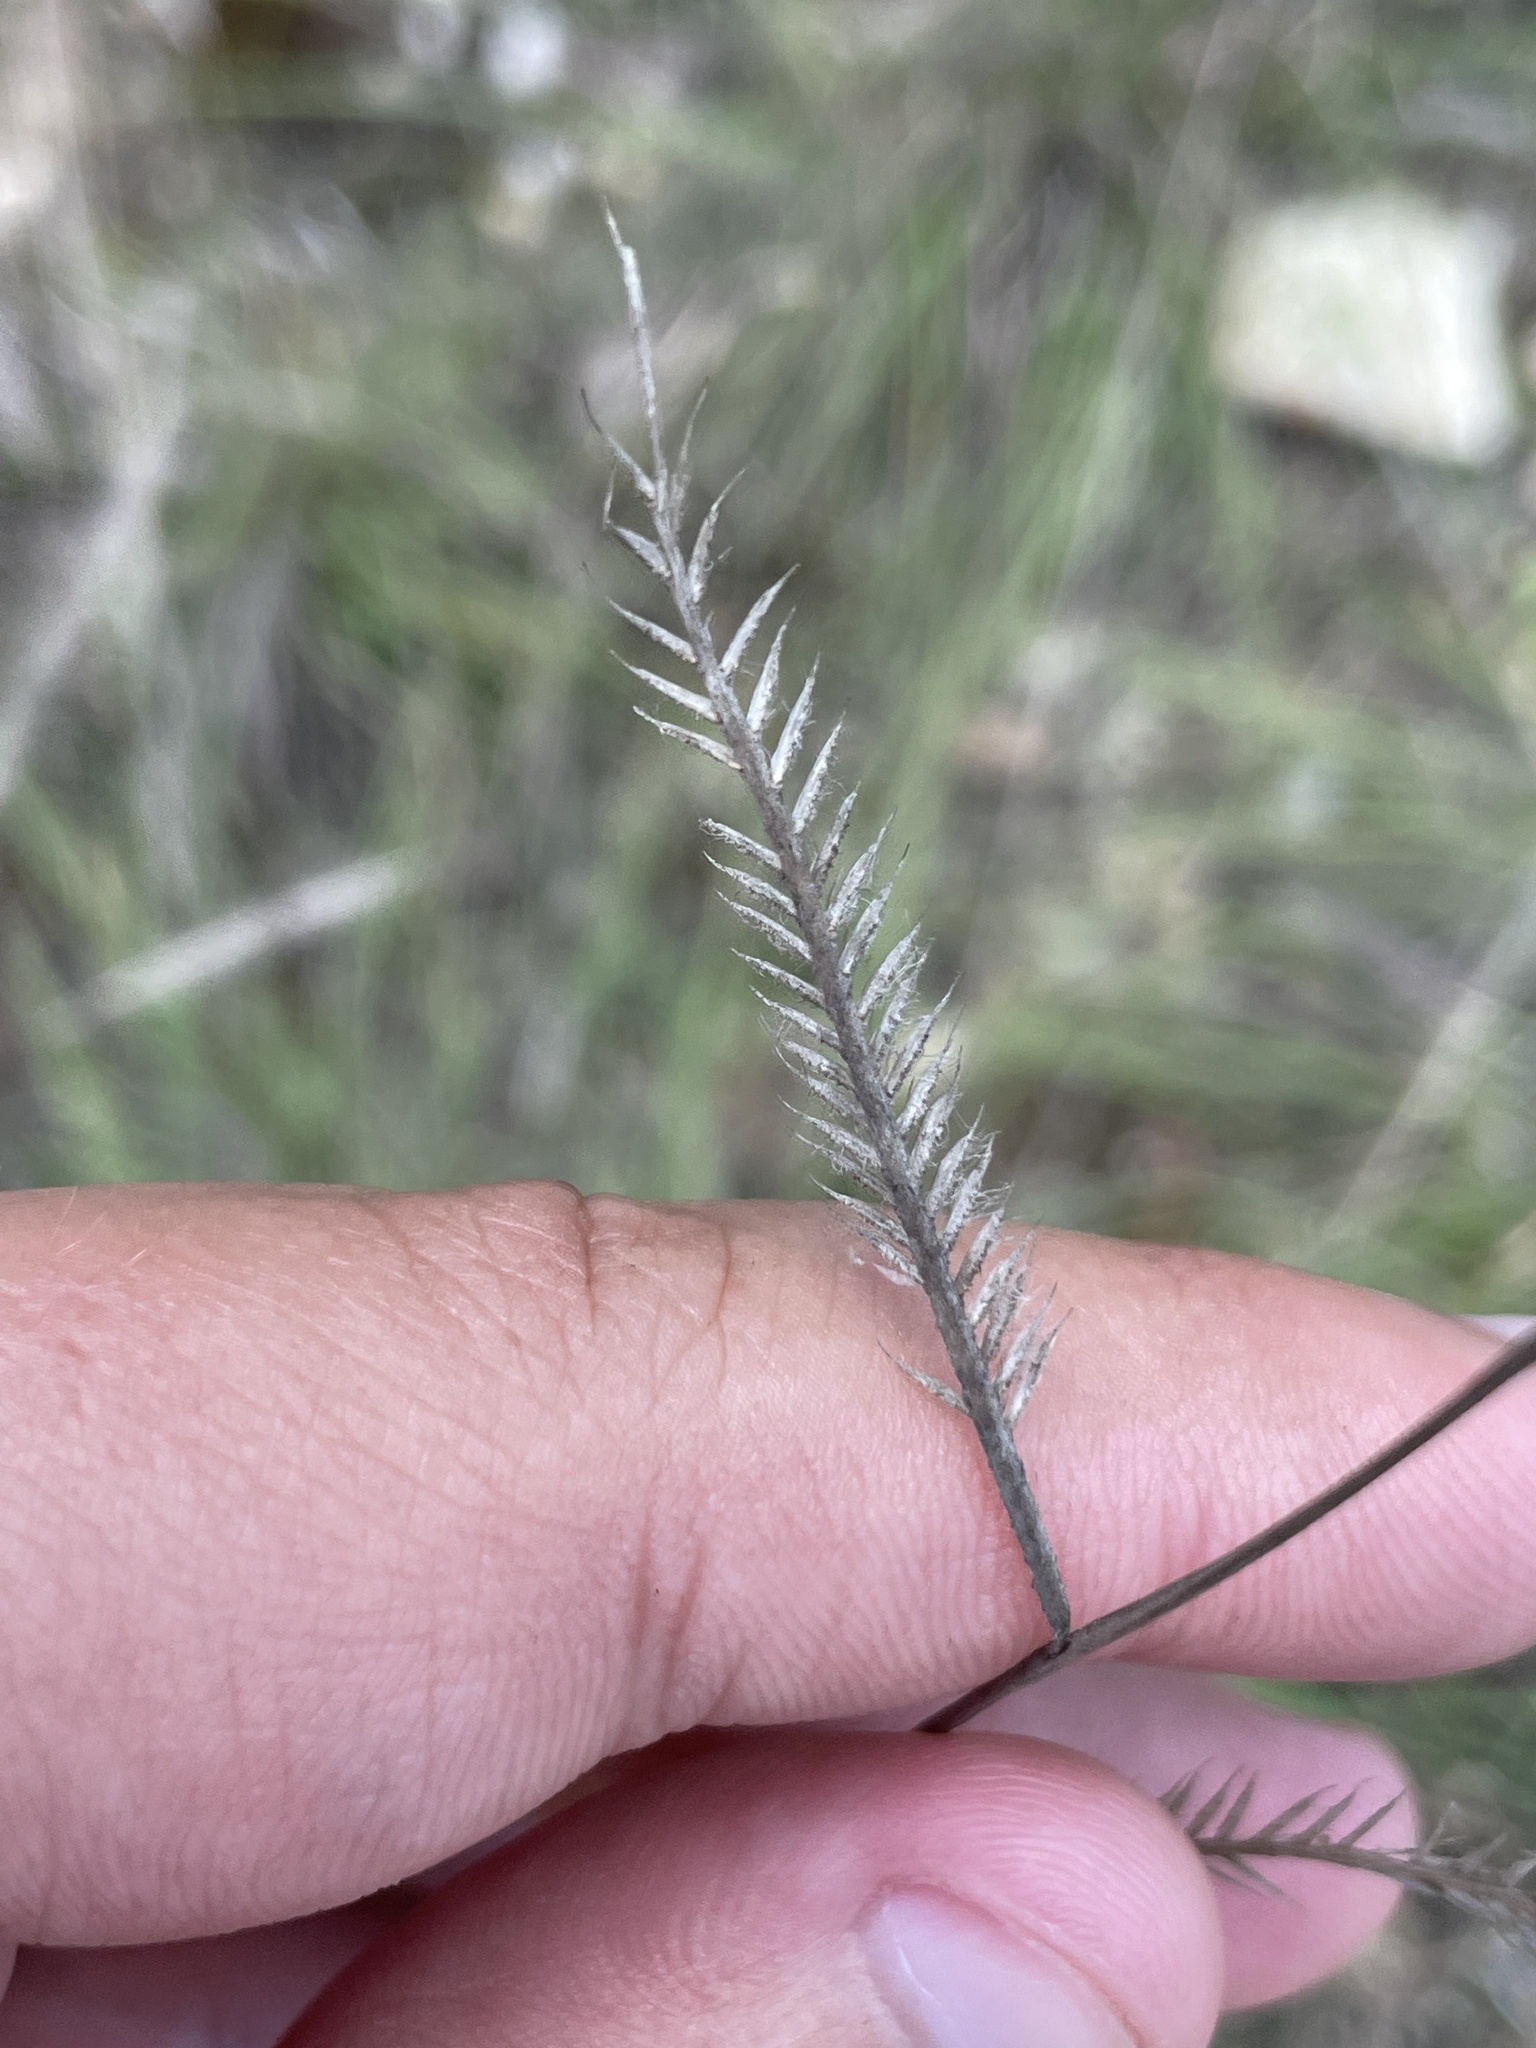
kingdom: Plantae
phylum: Tracheophyta
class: Liliopsida
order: Poales
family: Poaceae
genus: Bouteloua
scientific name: Bouteloua hirsuta
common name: Hairy grama
